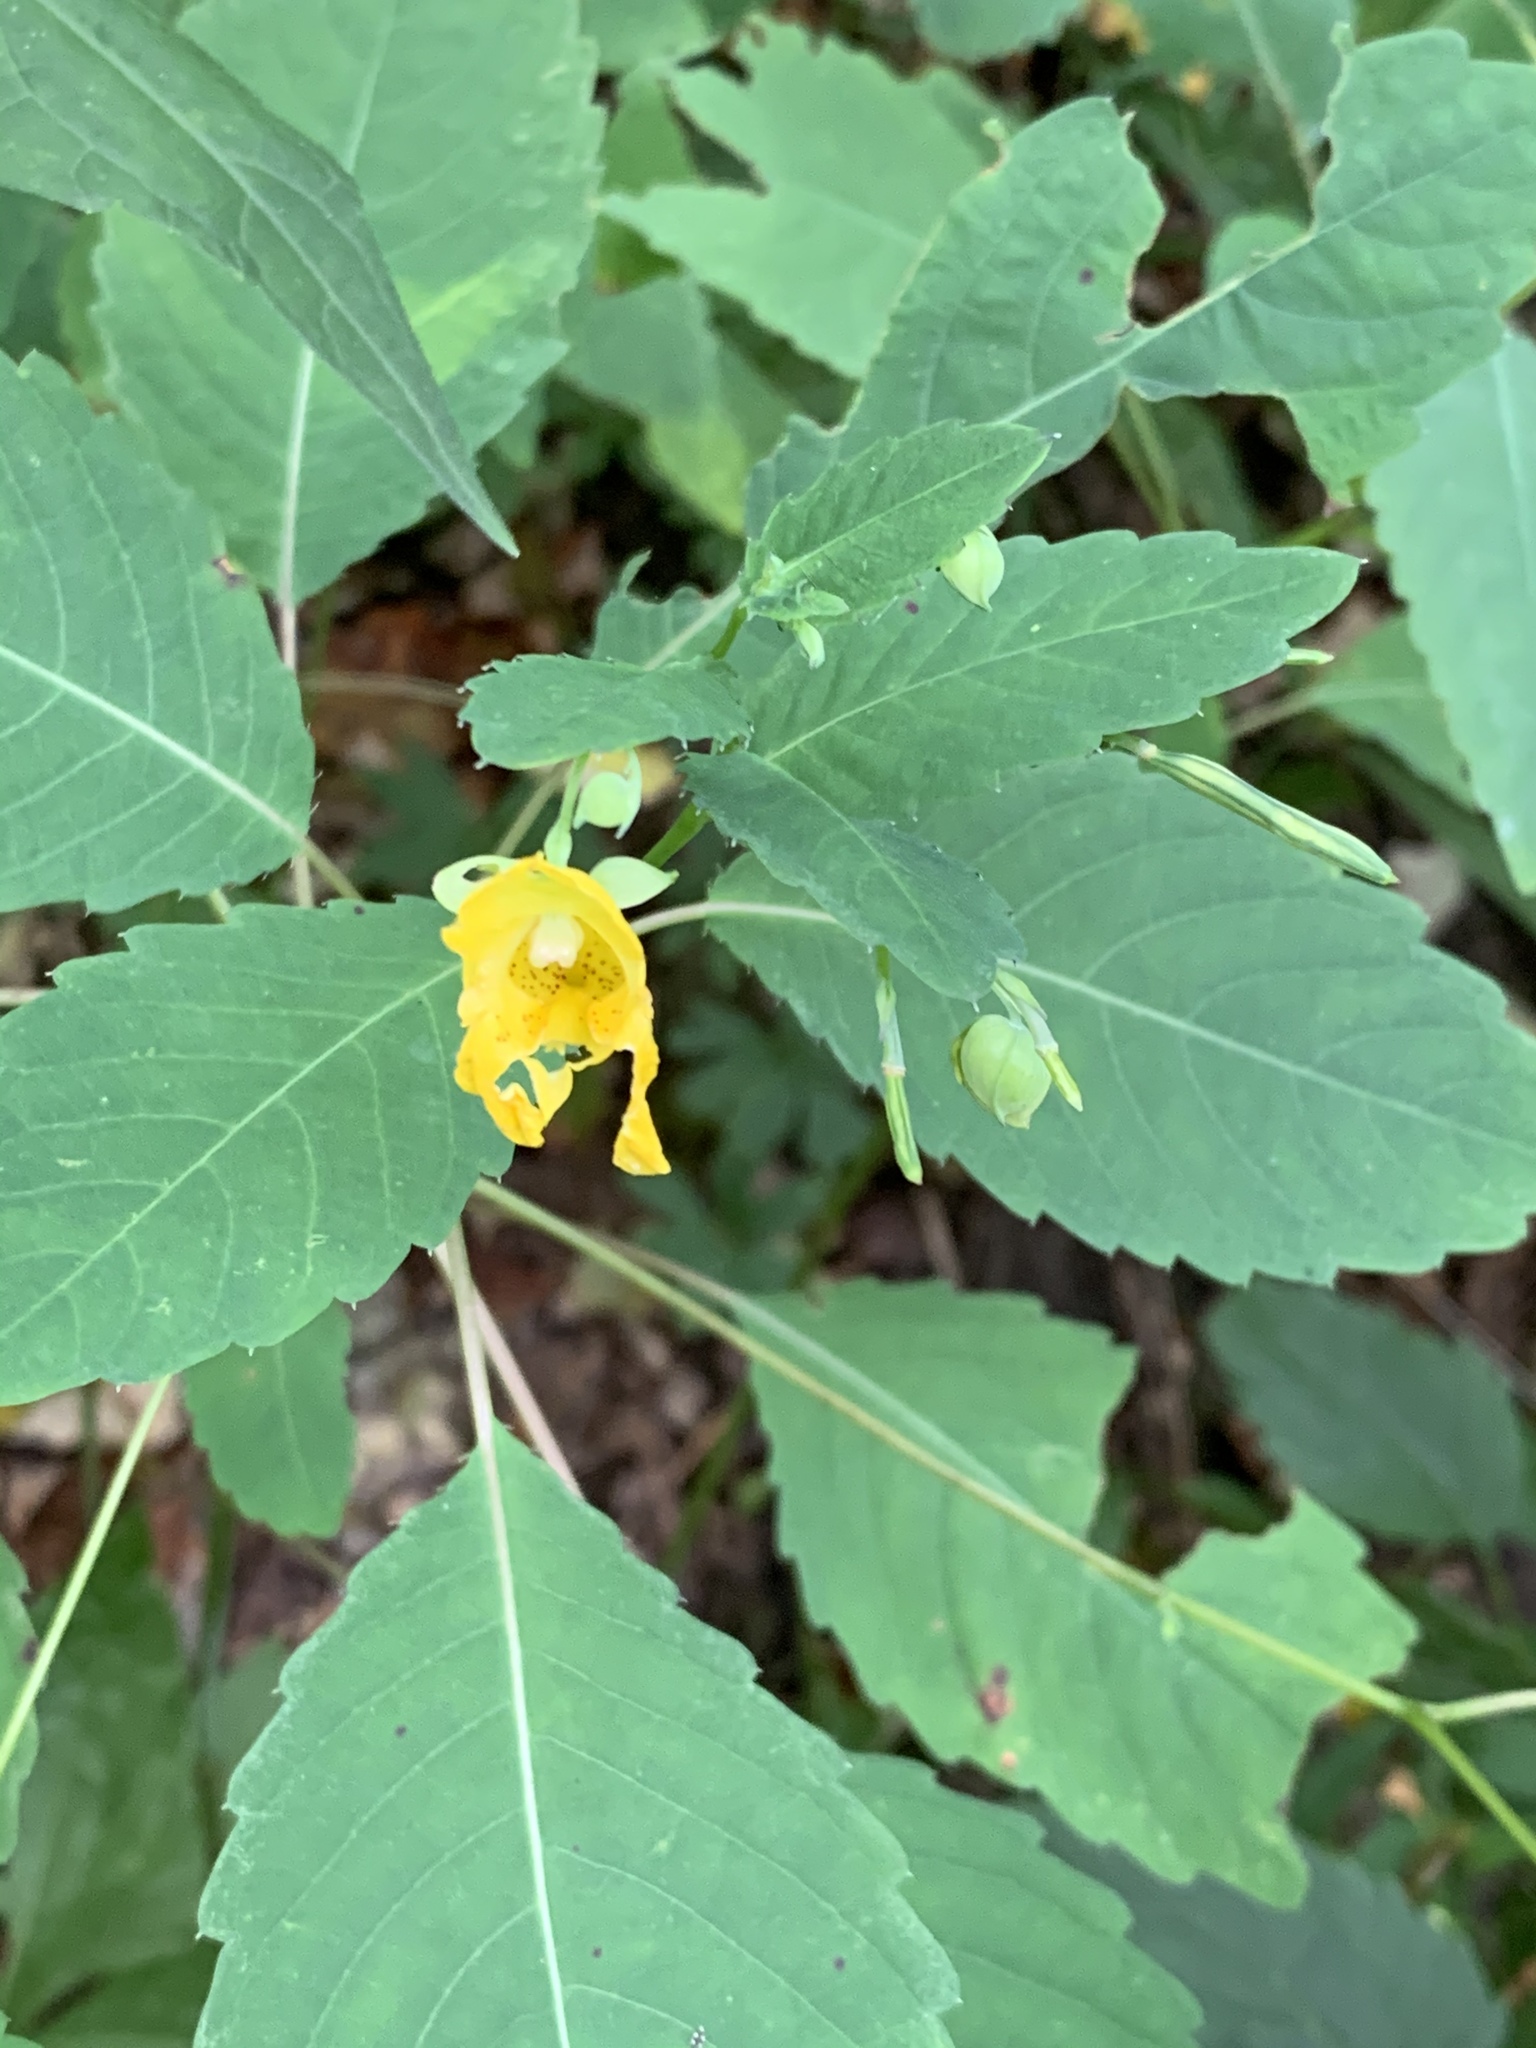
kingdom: Plantae
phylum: Tracheophyta
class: Magnoliopsida
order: Ericales
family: Balsaminaceae
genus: Impatiens
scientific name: Impatiens pallida
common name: Pale snapweed
